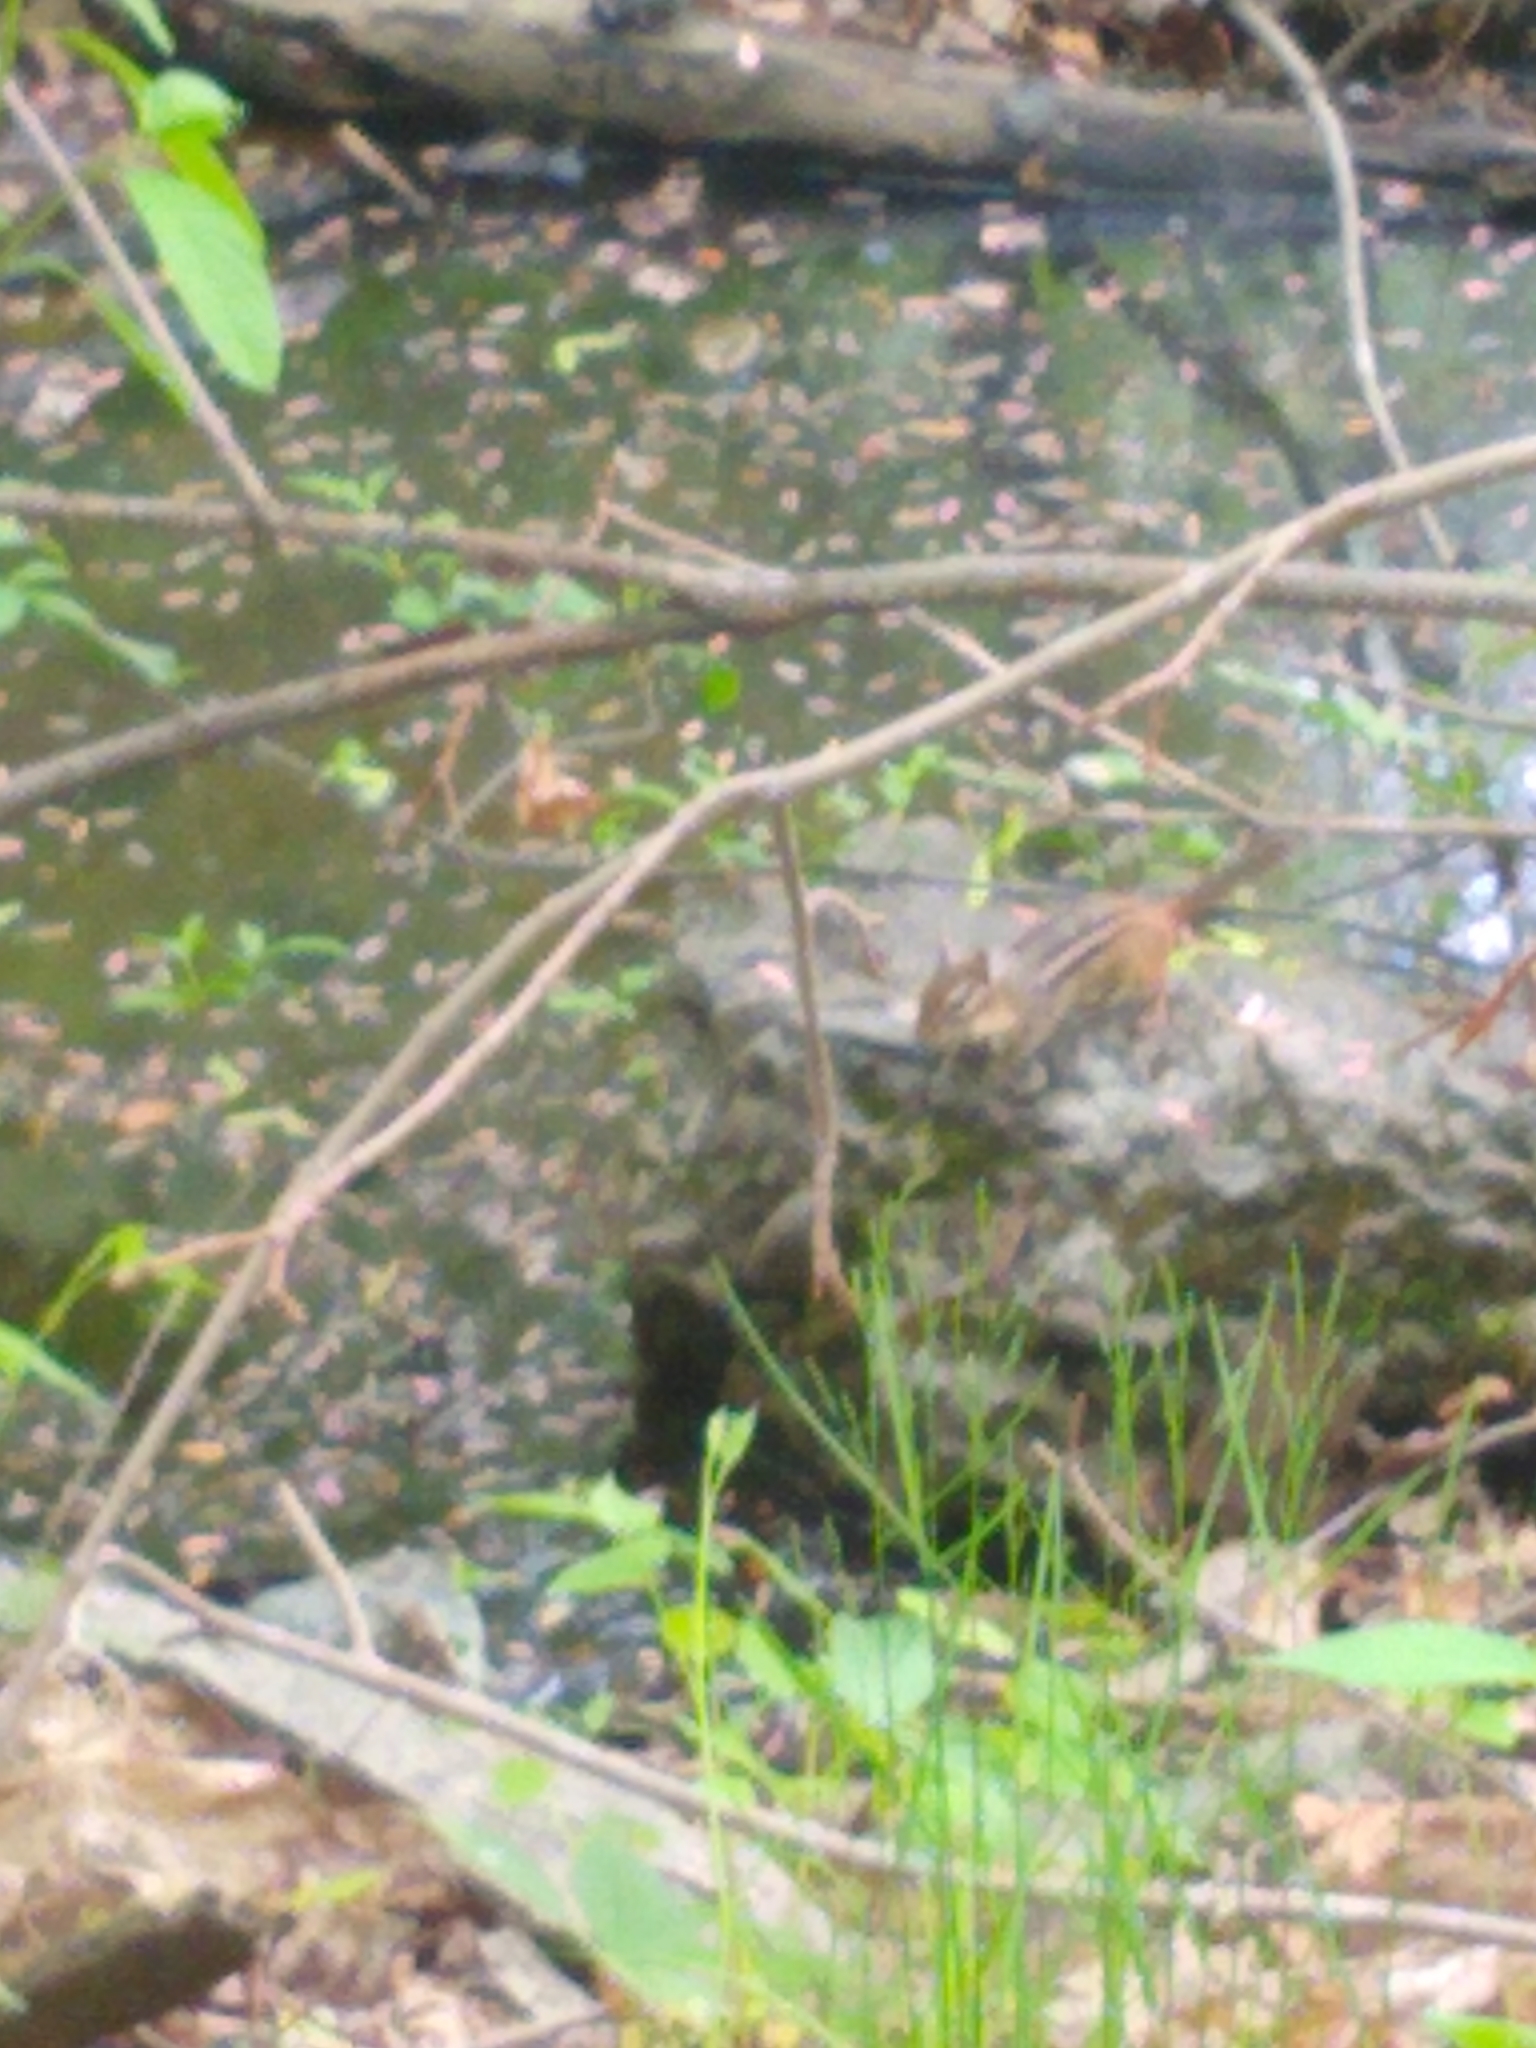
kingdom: Animalia
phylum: Chordata
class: Mammalia
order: Rodentia
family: Sciuridae
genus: Tamias
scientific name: Tamias striatus
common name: Eastern chipmunk
